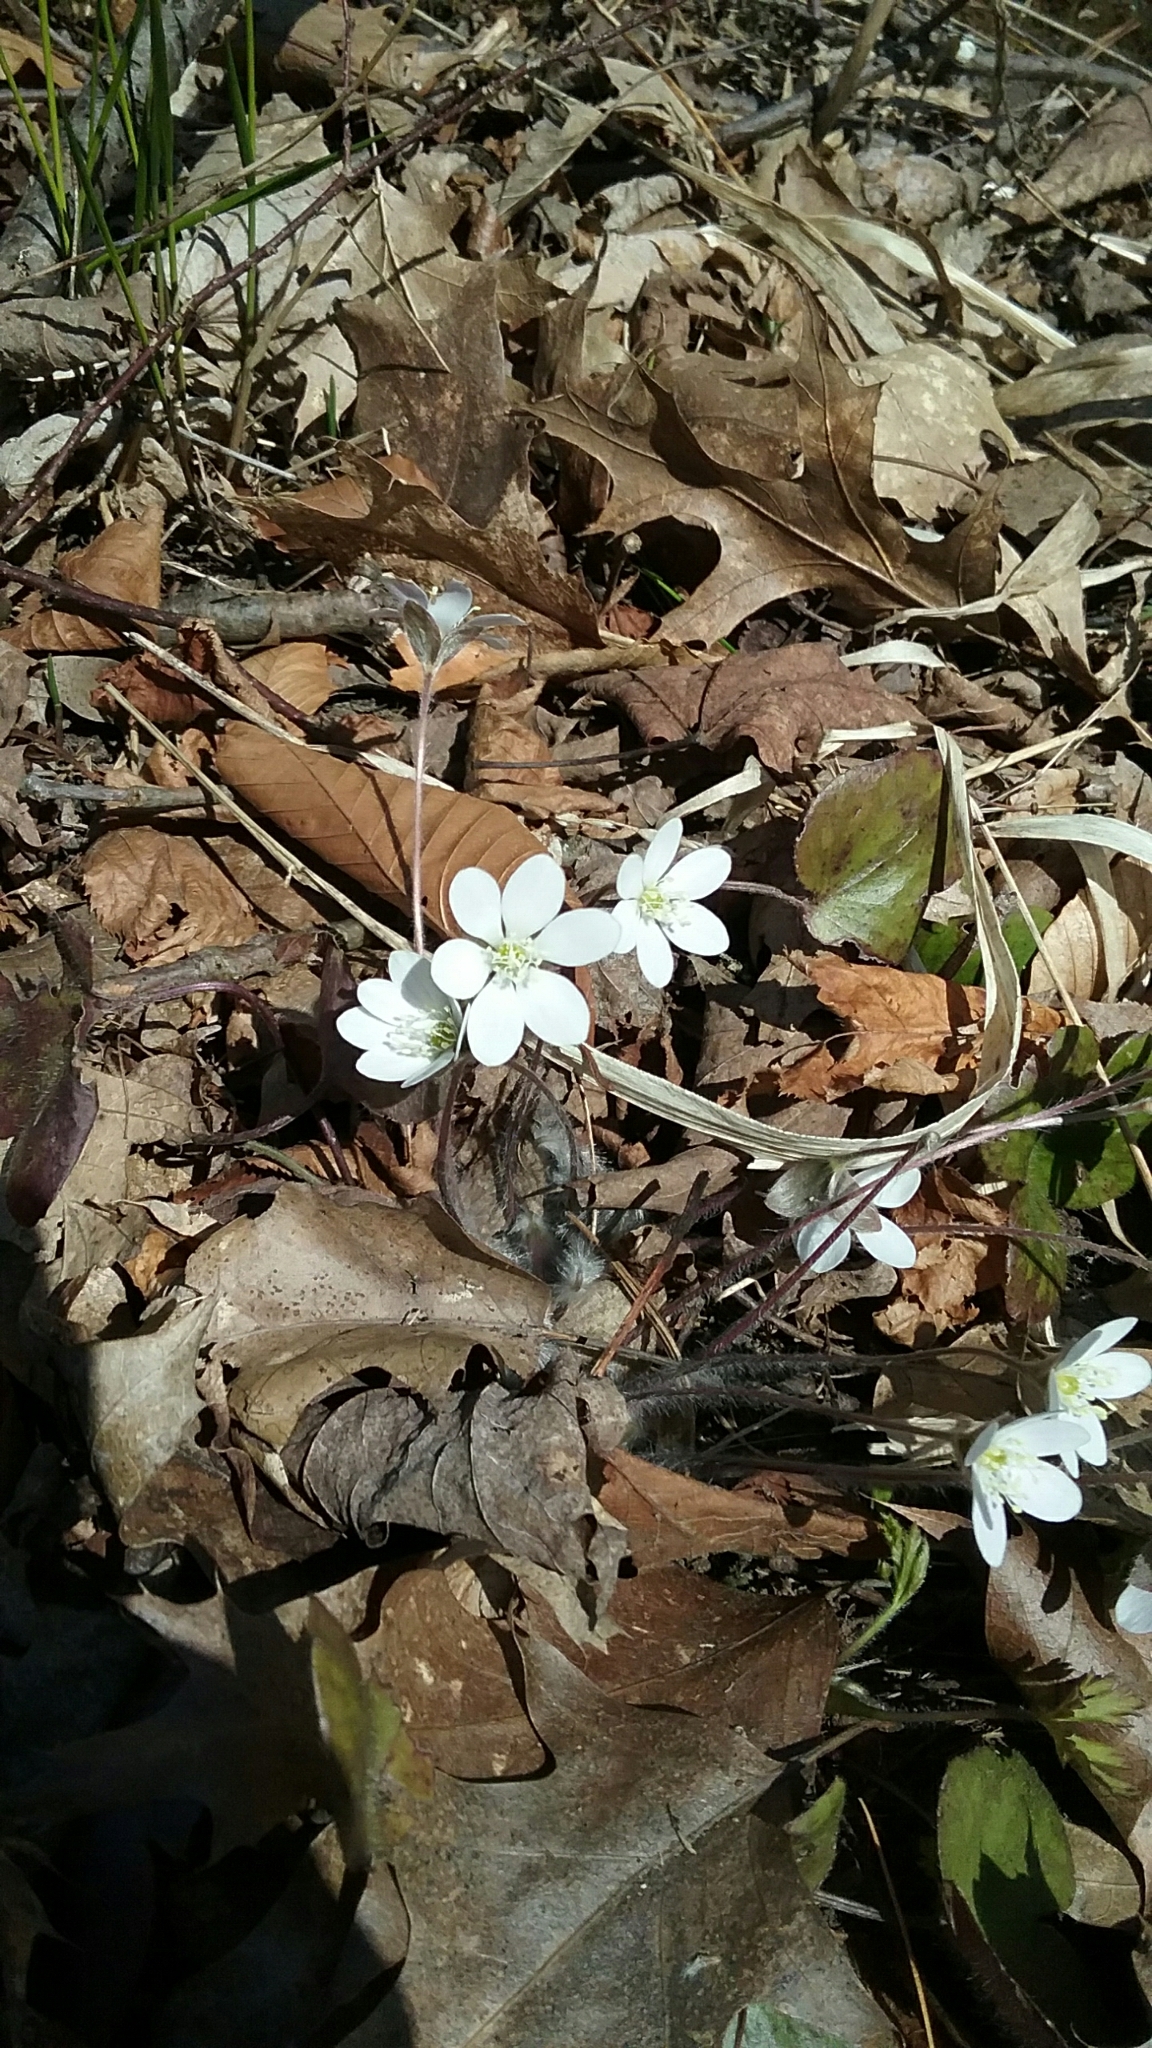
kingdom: Plantae
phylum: Tracheophyta
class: Magnoliopsida
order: Ranunculales
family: Ranunculaceae
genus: Hepatica
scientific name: Hepatica americana
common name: American hepatica
